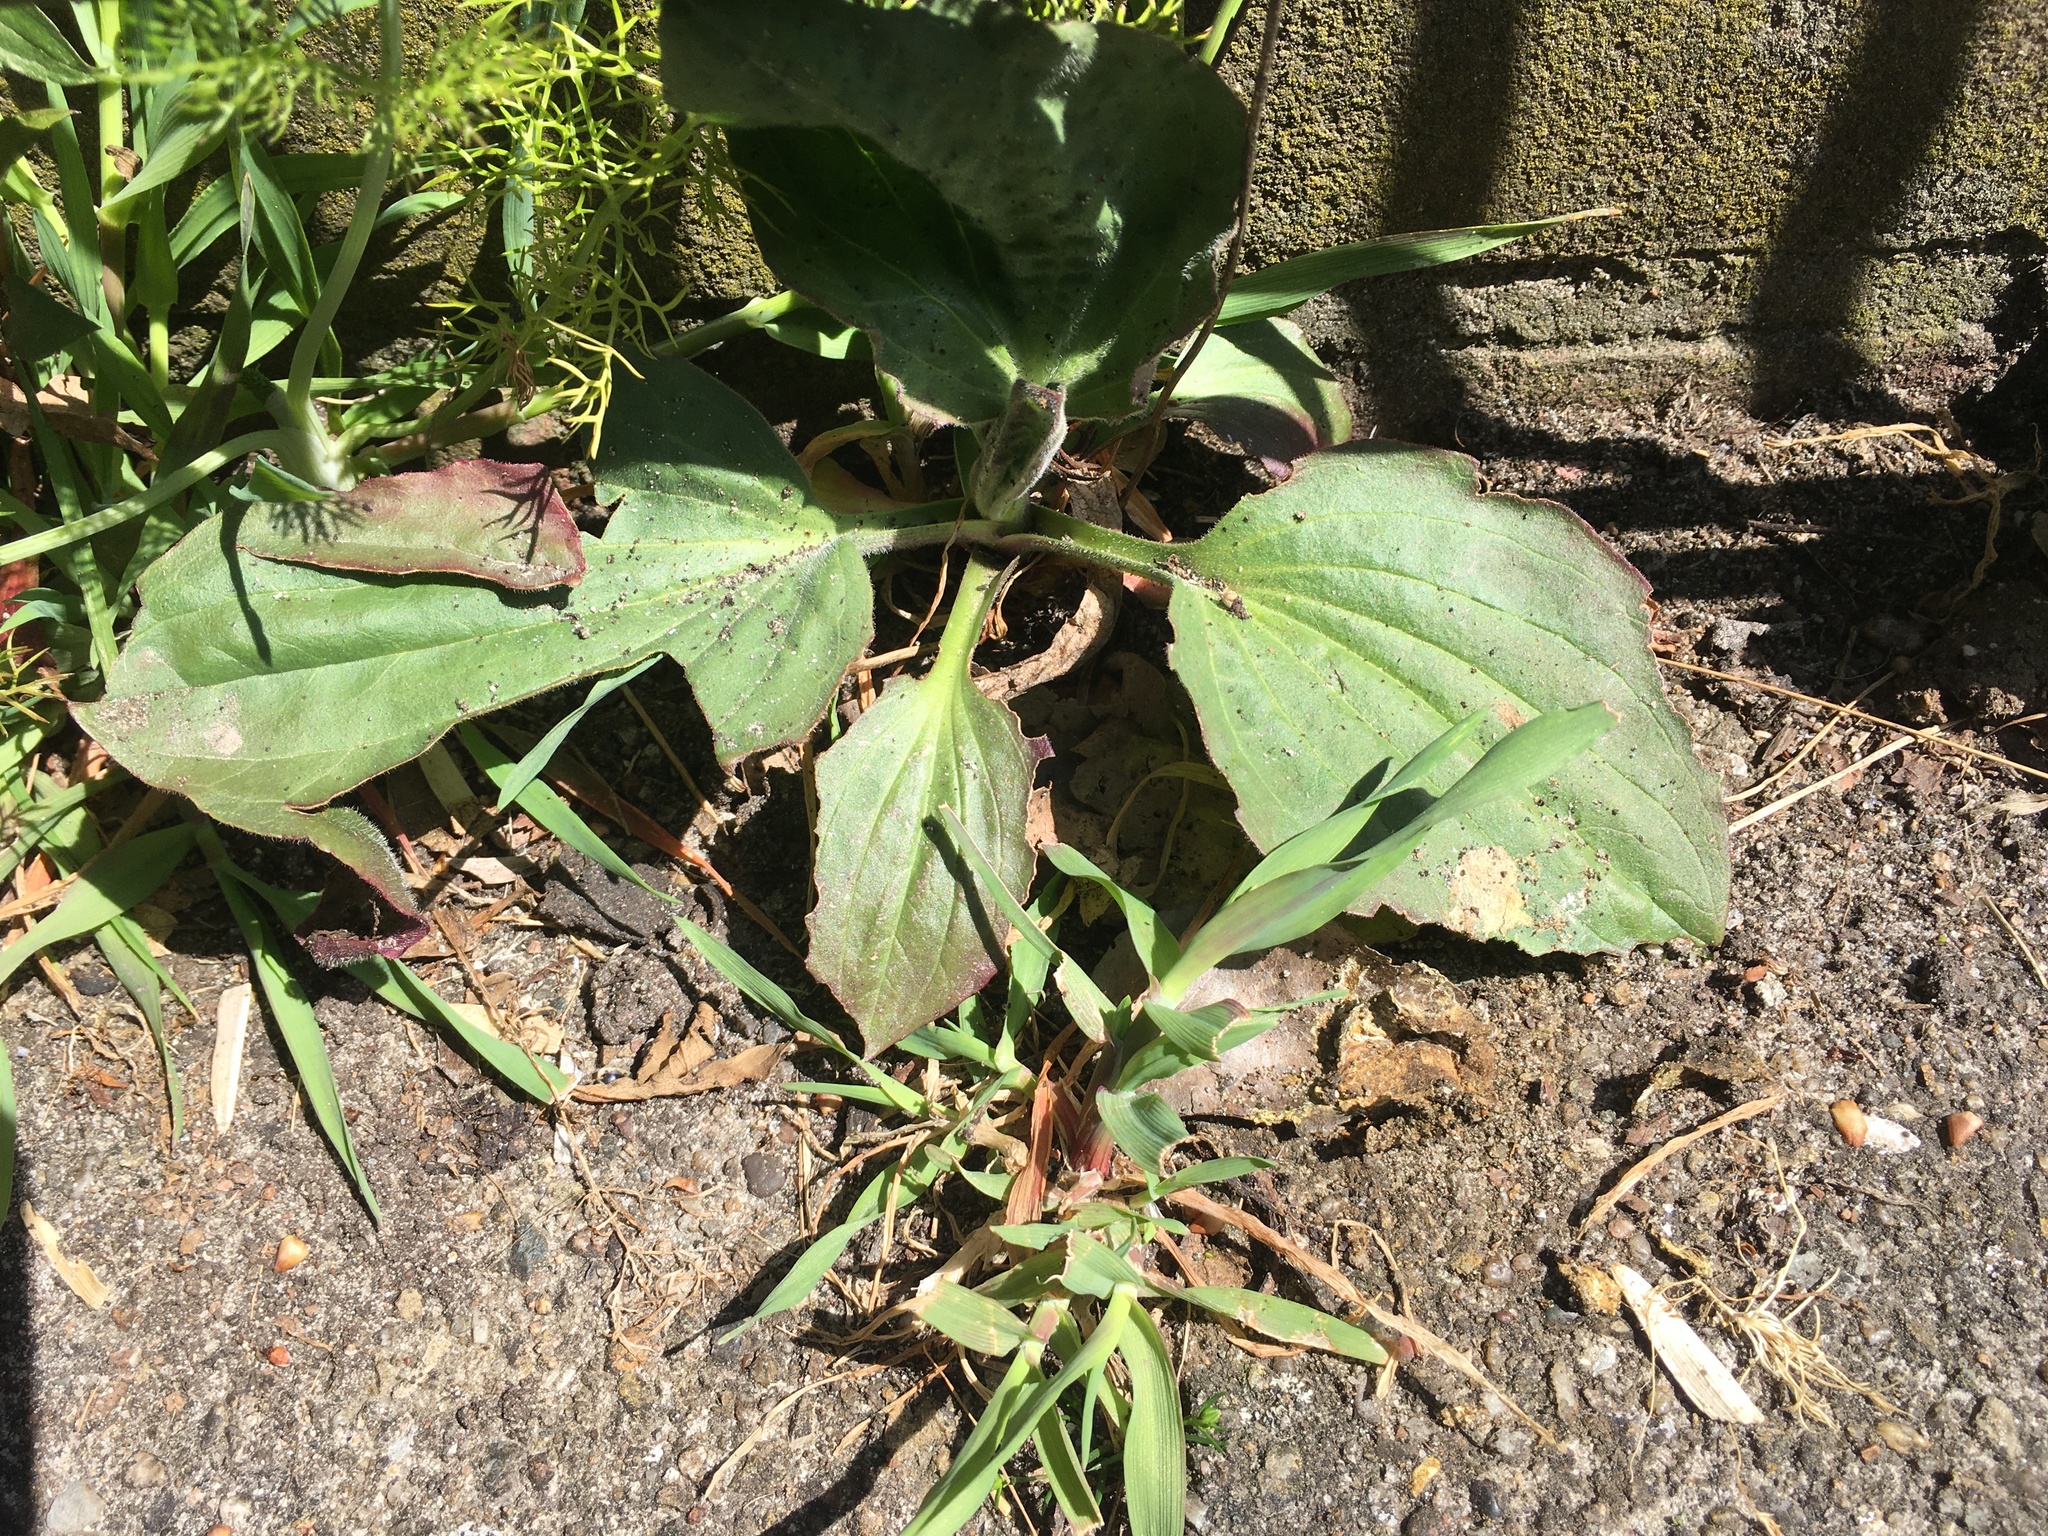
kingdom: Plantae
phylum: Tracheophyta
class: Magnoliopsida
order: Lamiales
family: Plantaginaceae
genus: Plantago
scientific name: Plantago major
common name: Common plantain
